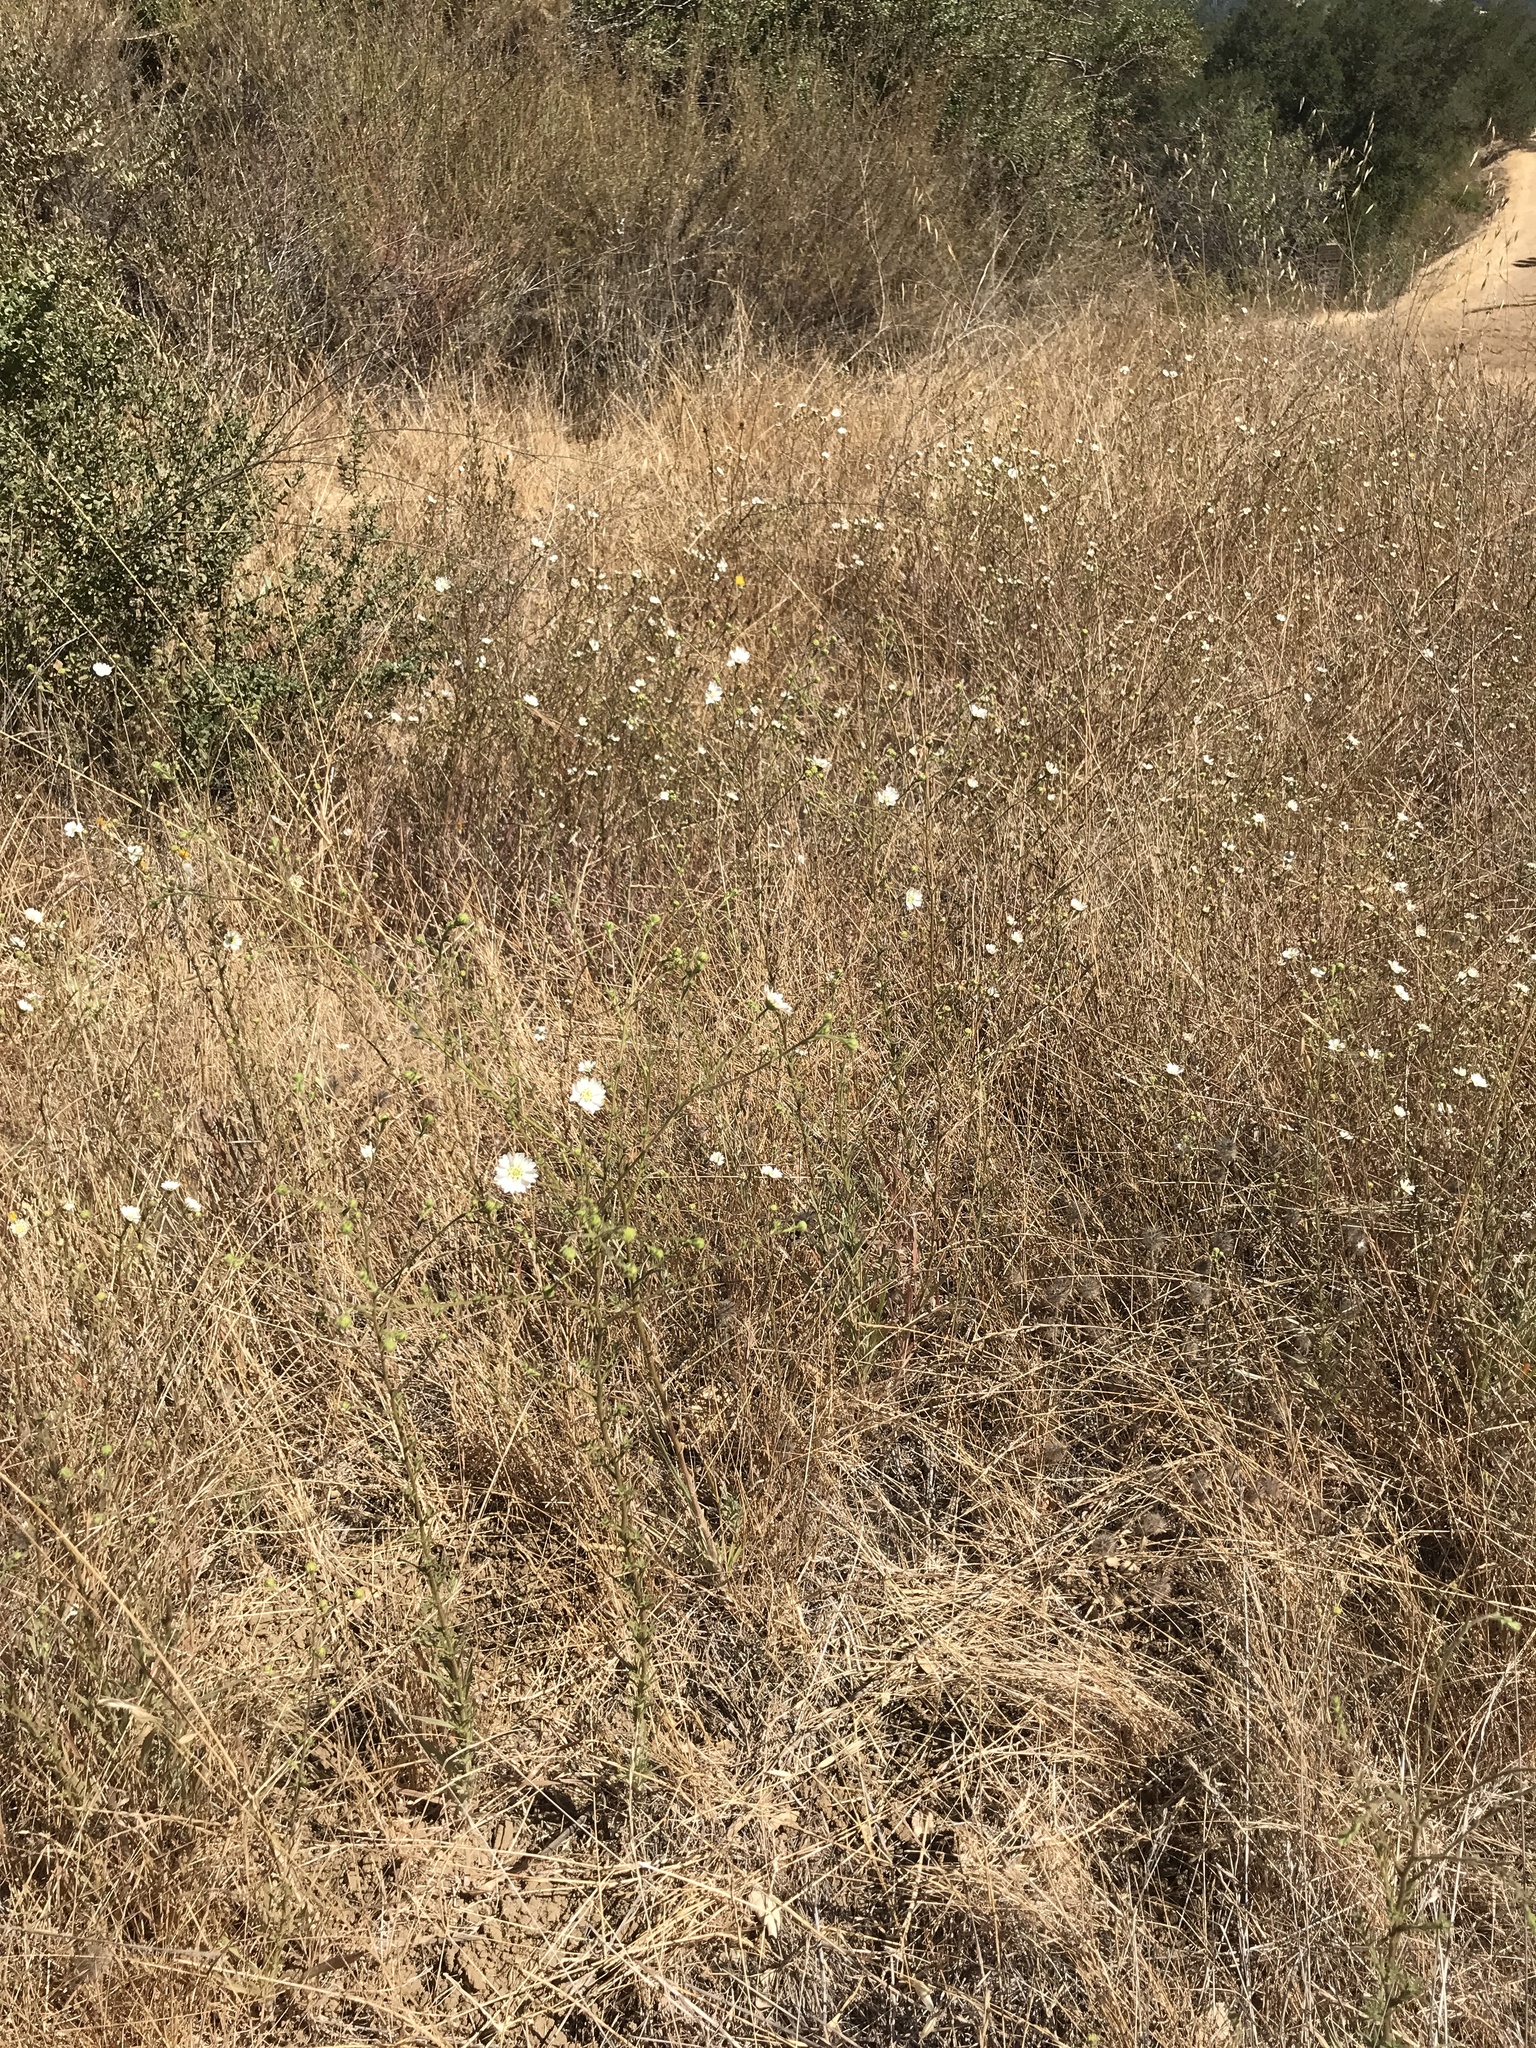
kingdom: Plantae
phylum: Tracheophyta
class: Magnoliopsida
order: Asterales
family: Asteraceae
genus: Hemizonia
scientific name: Hemizonia congesta
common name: Hayfield tarweed
